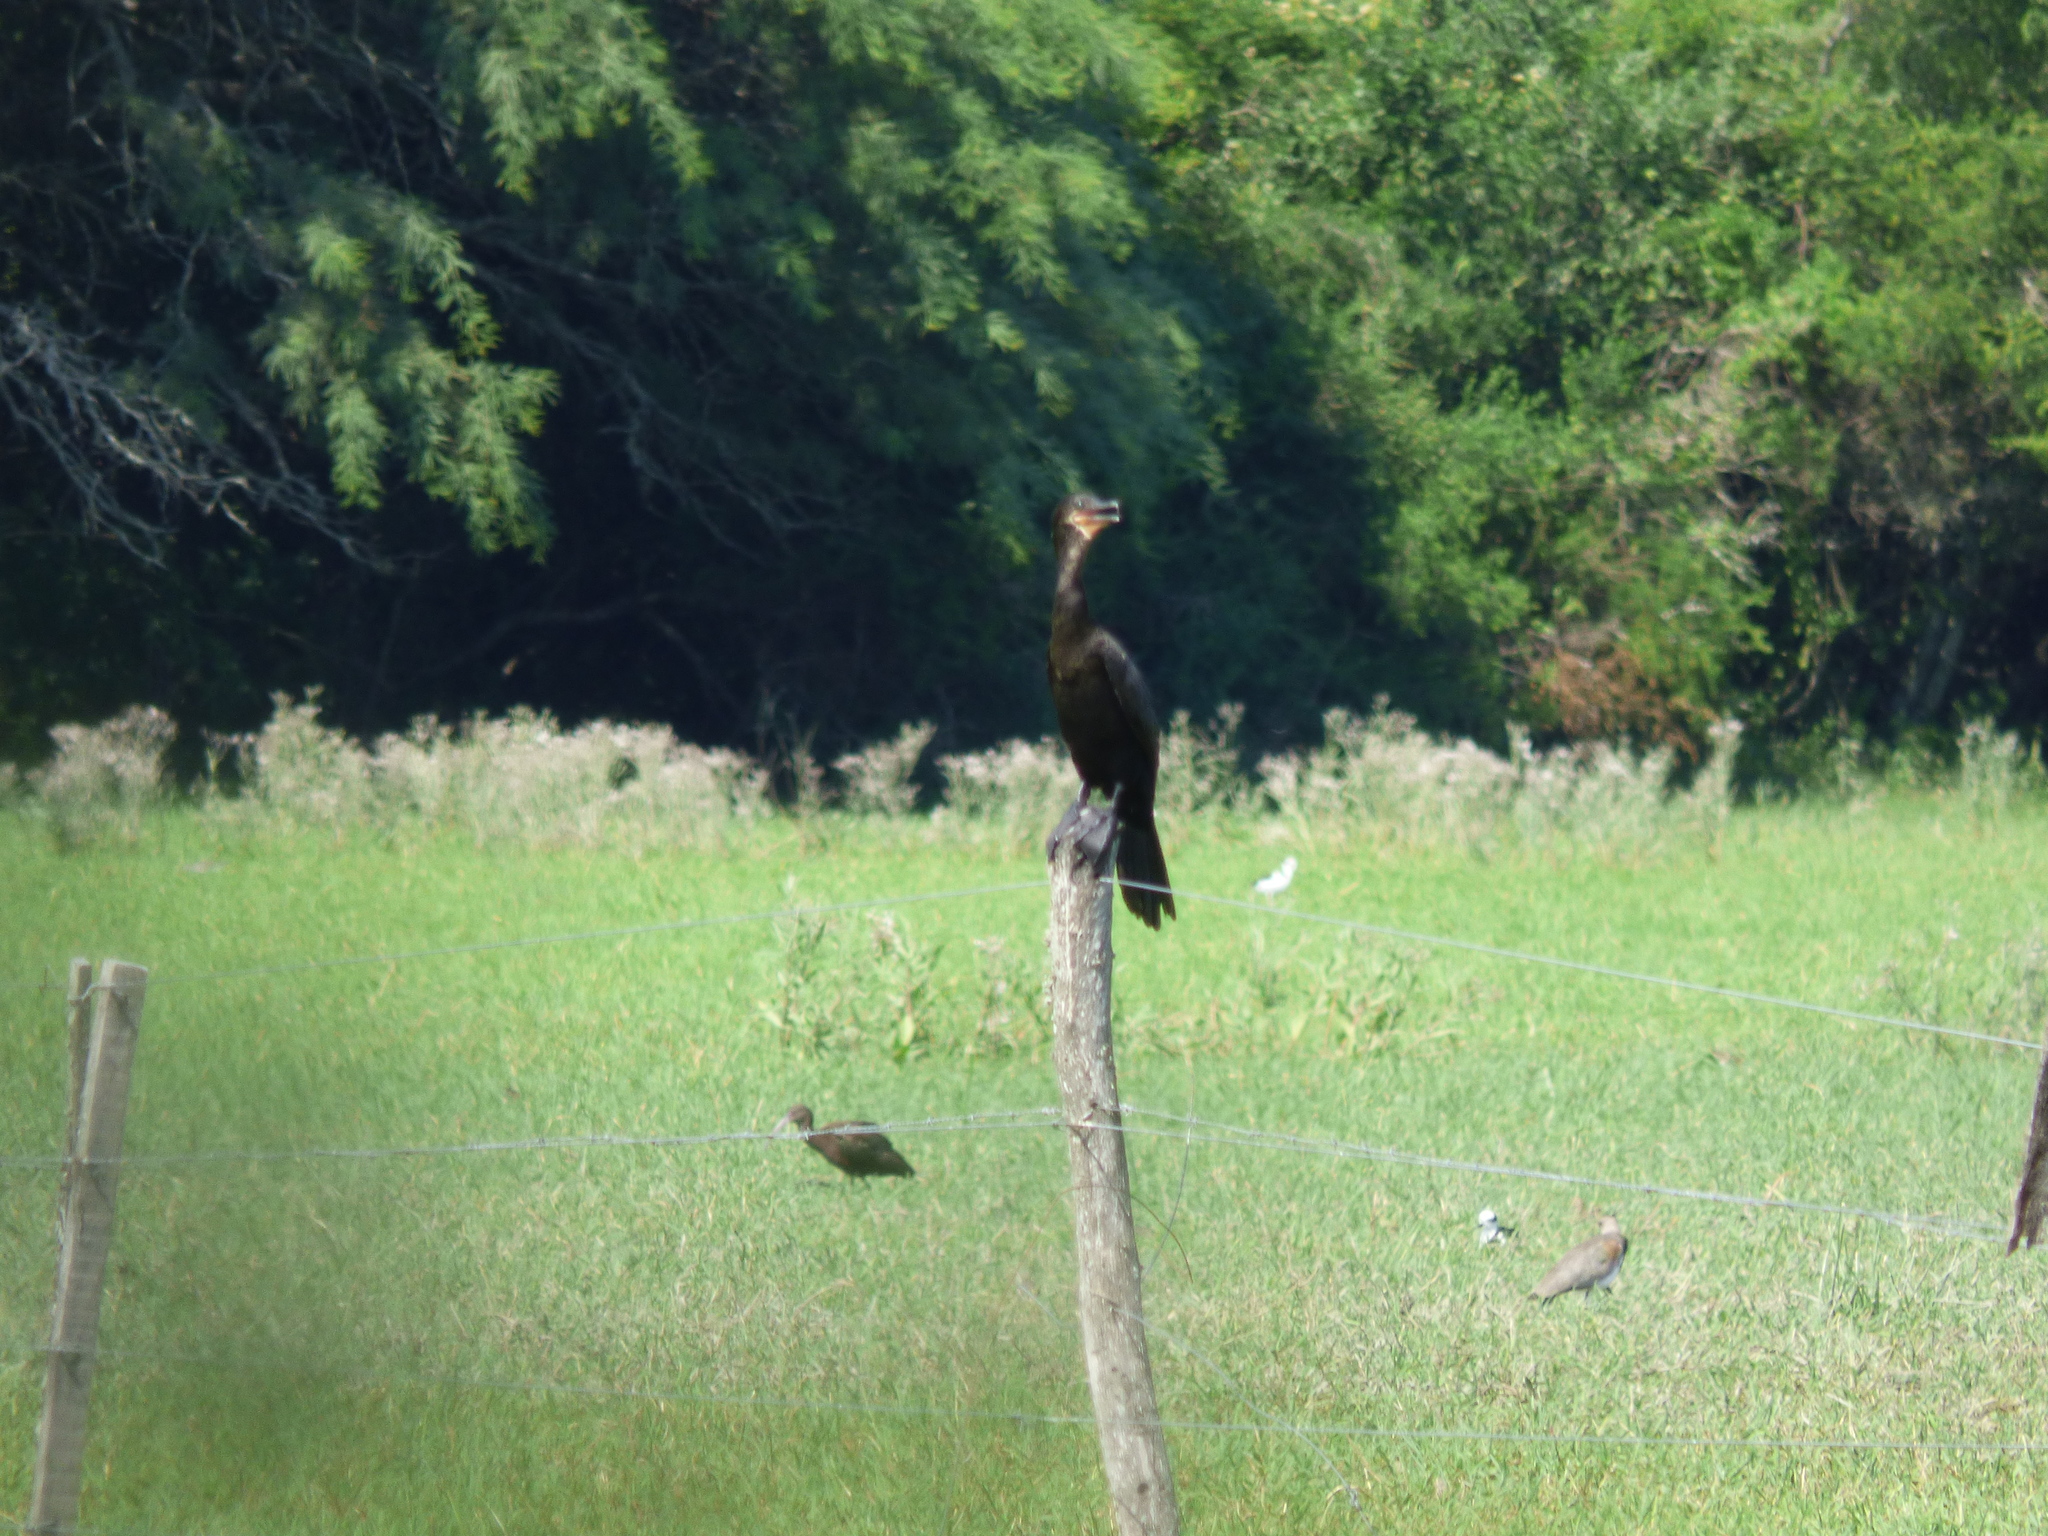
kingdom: Animalia
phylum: Chordata
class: Aves
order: Suliformes
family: Phalacrocoracidae
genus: Phalacrocorax
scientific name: Phalacrocorax brasilianus
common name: Neotropic cormorant
